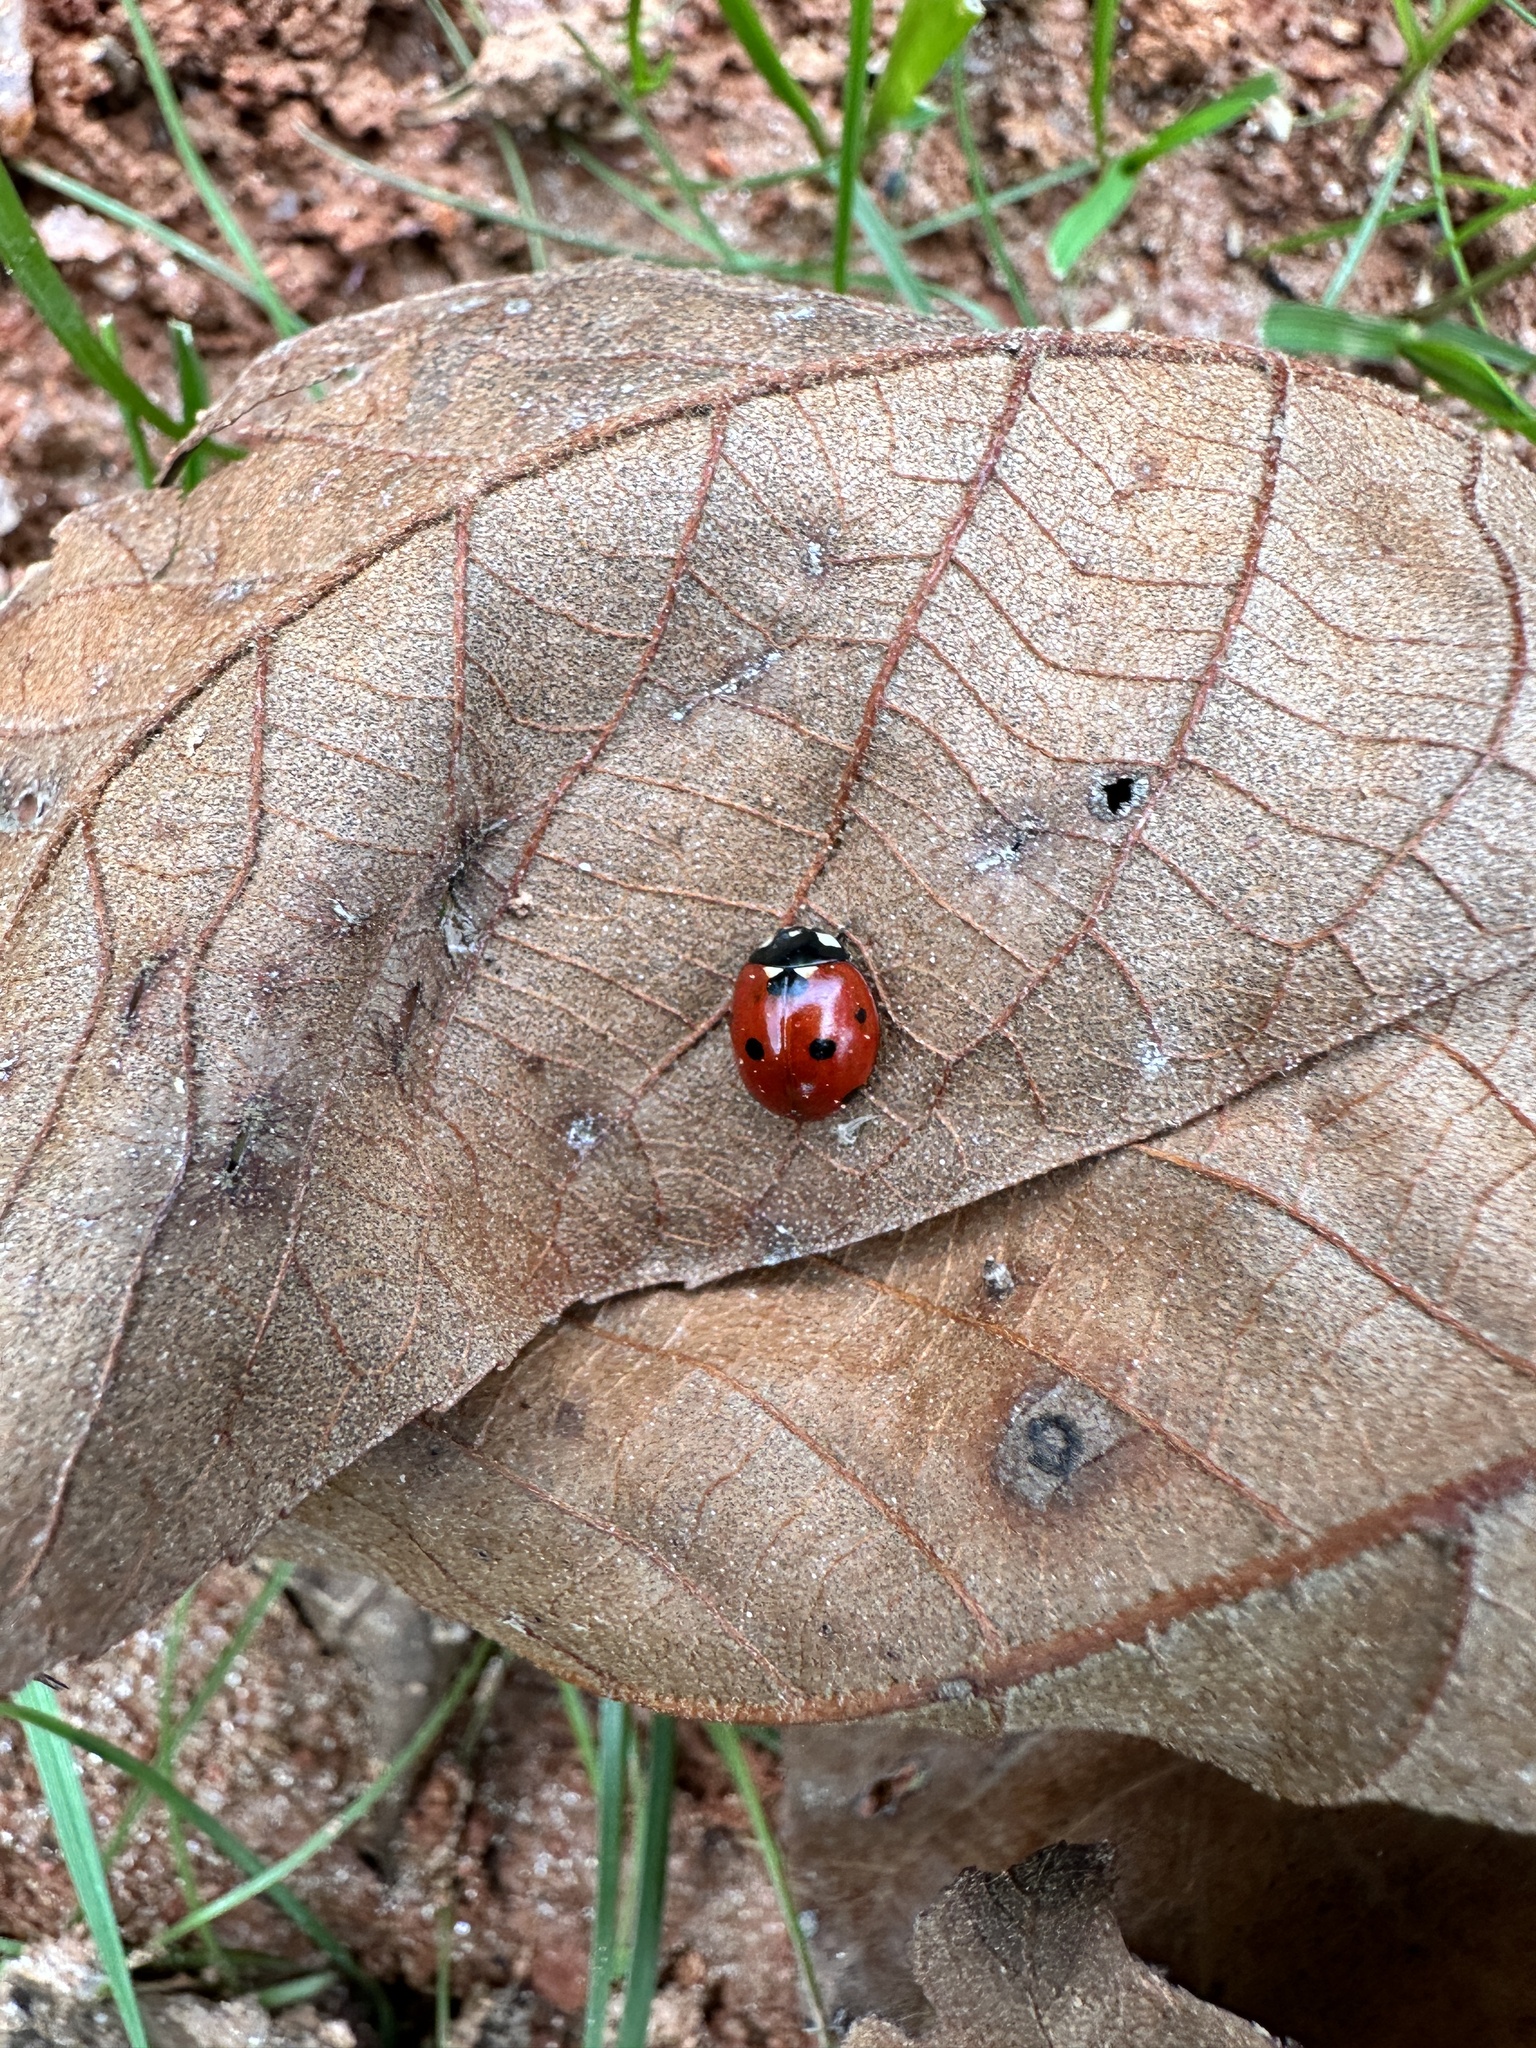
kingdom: Animalia
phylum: Arthropoda
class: Insecta
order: Coleoptera
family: Coccinellidae
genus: Coccinella
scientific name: Coccinella septempunctata
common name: Sevenspotted lady beetle
